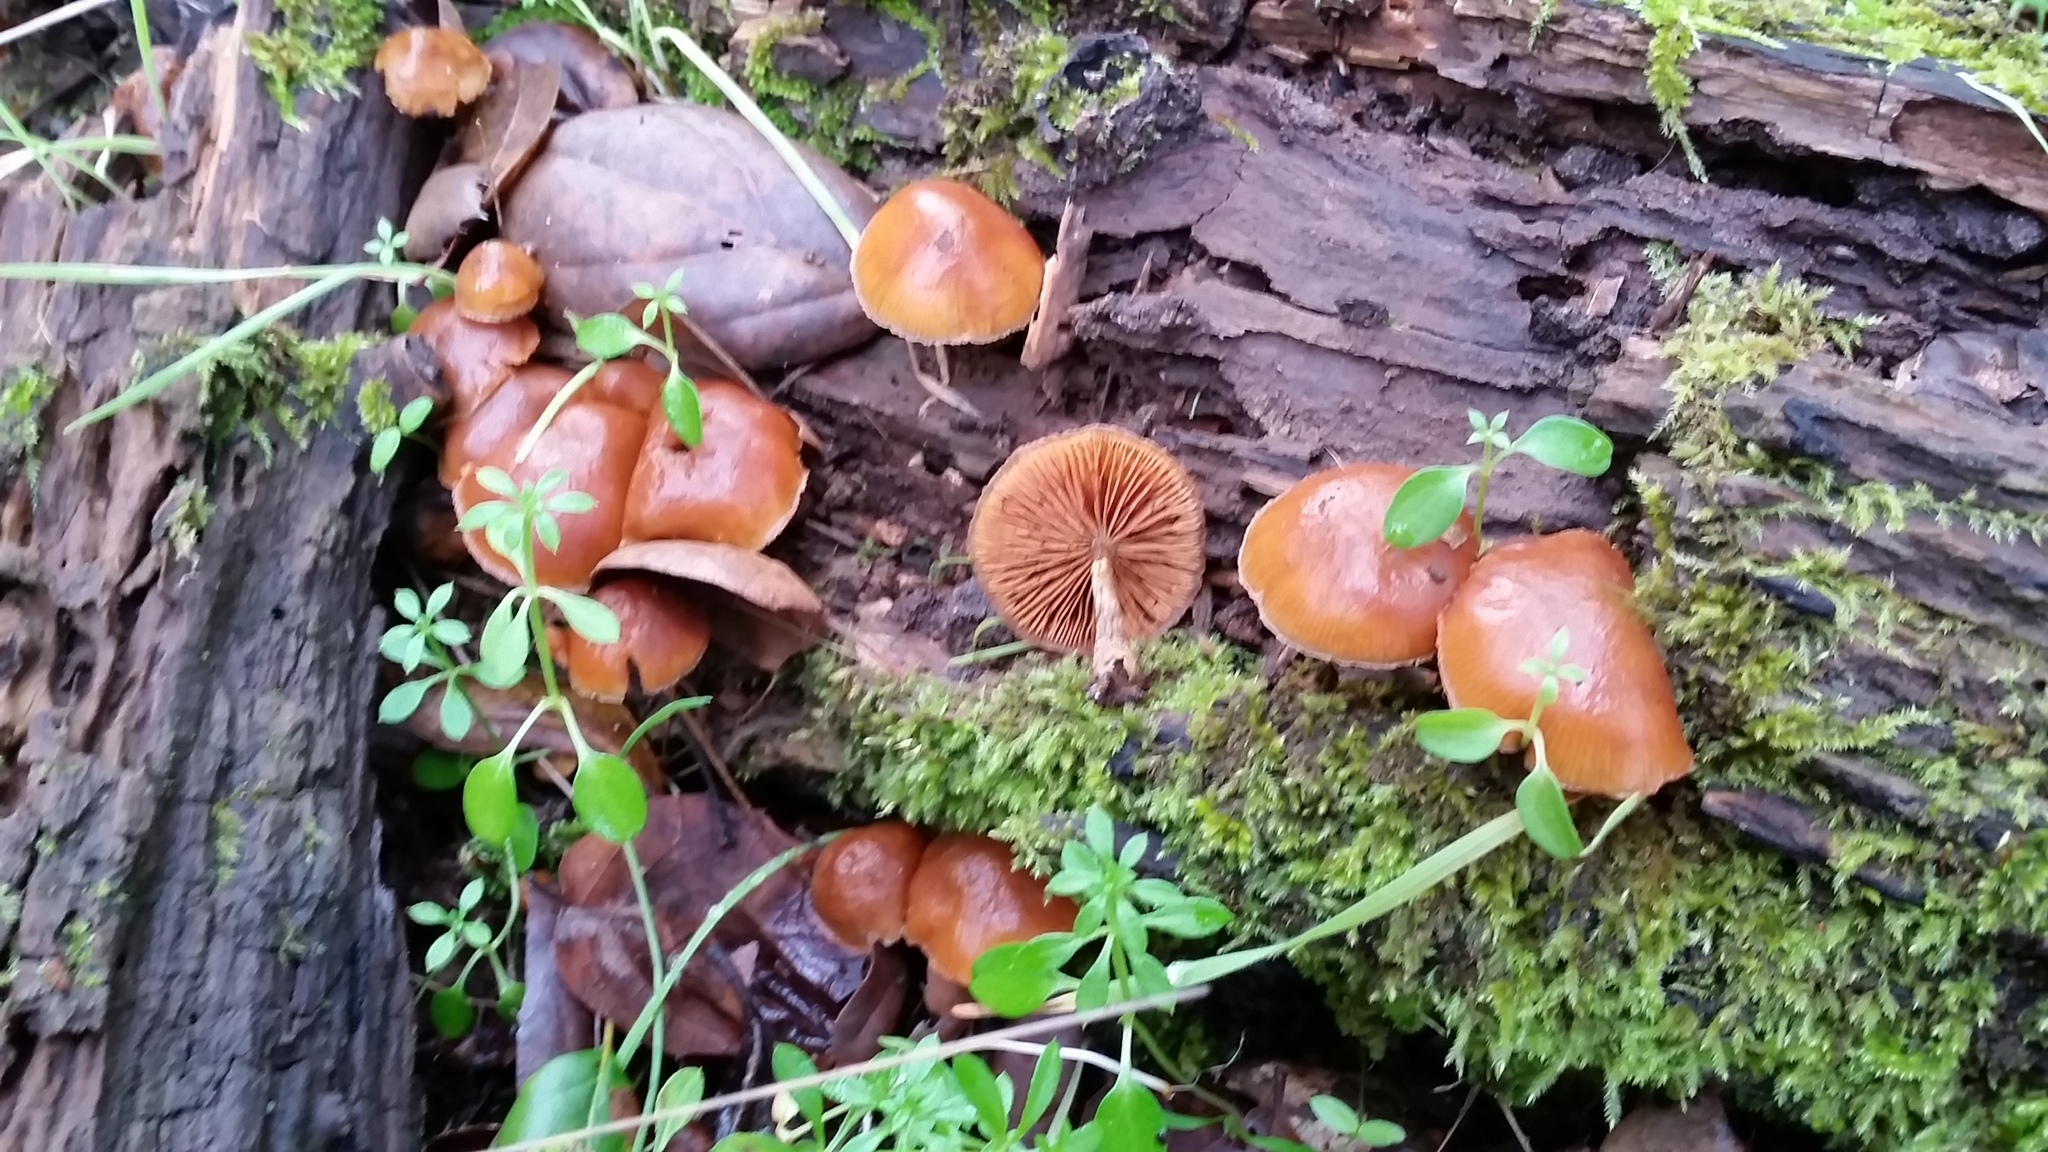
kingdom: Fungi
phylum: Basidiomycota
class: Agaricomycetes
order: Agaricales
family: Hymenogastraceae
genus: Galerina
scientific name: Galerina marginata
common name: Funeral bell
